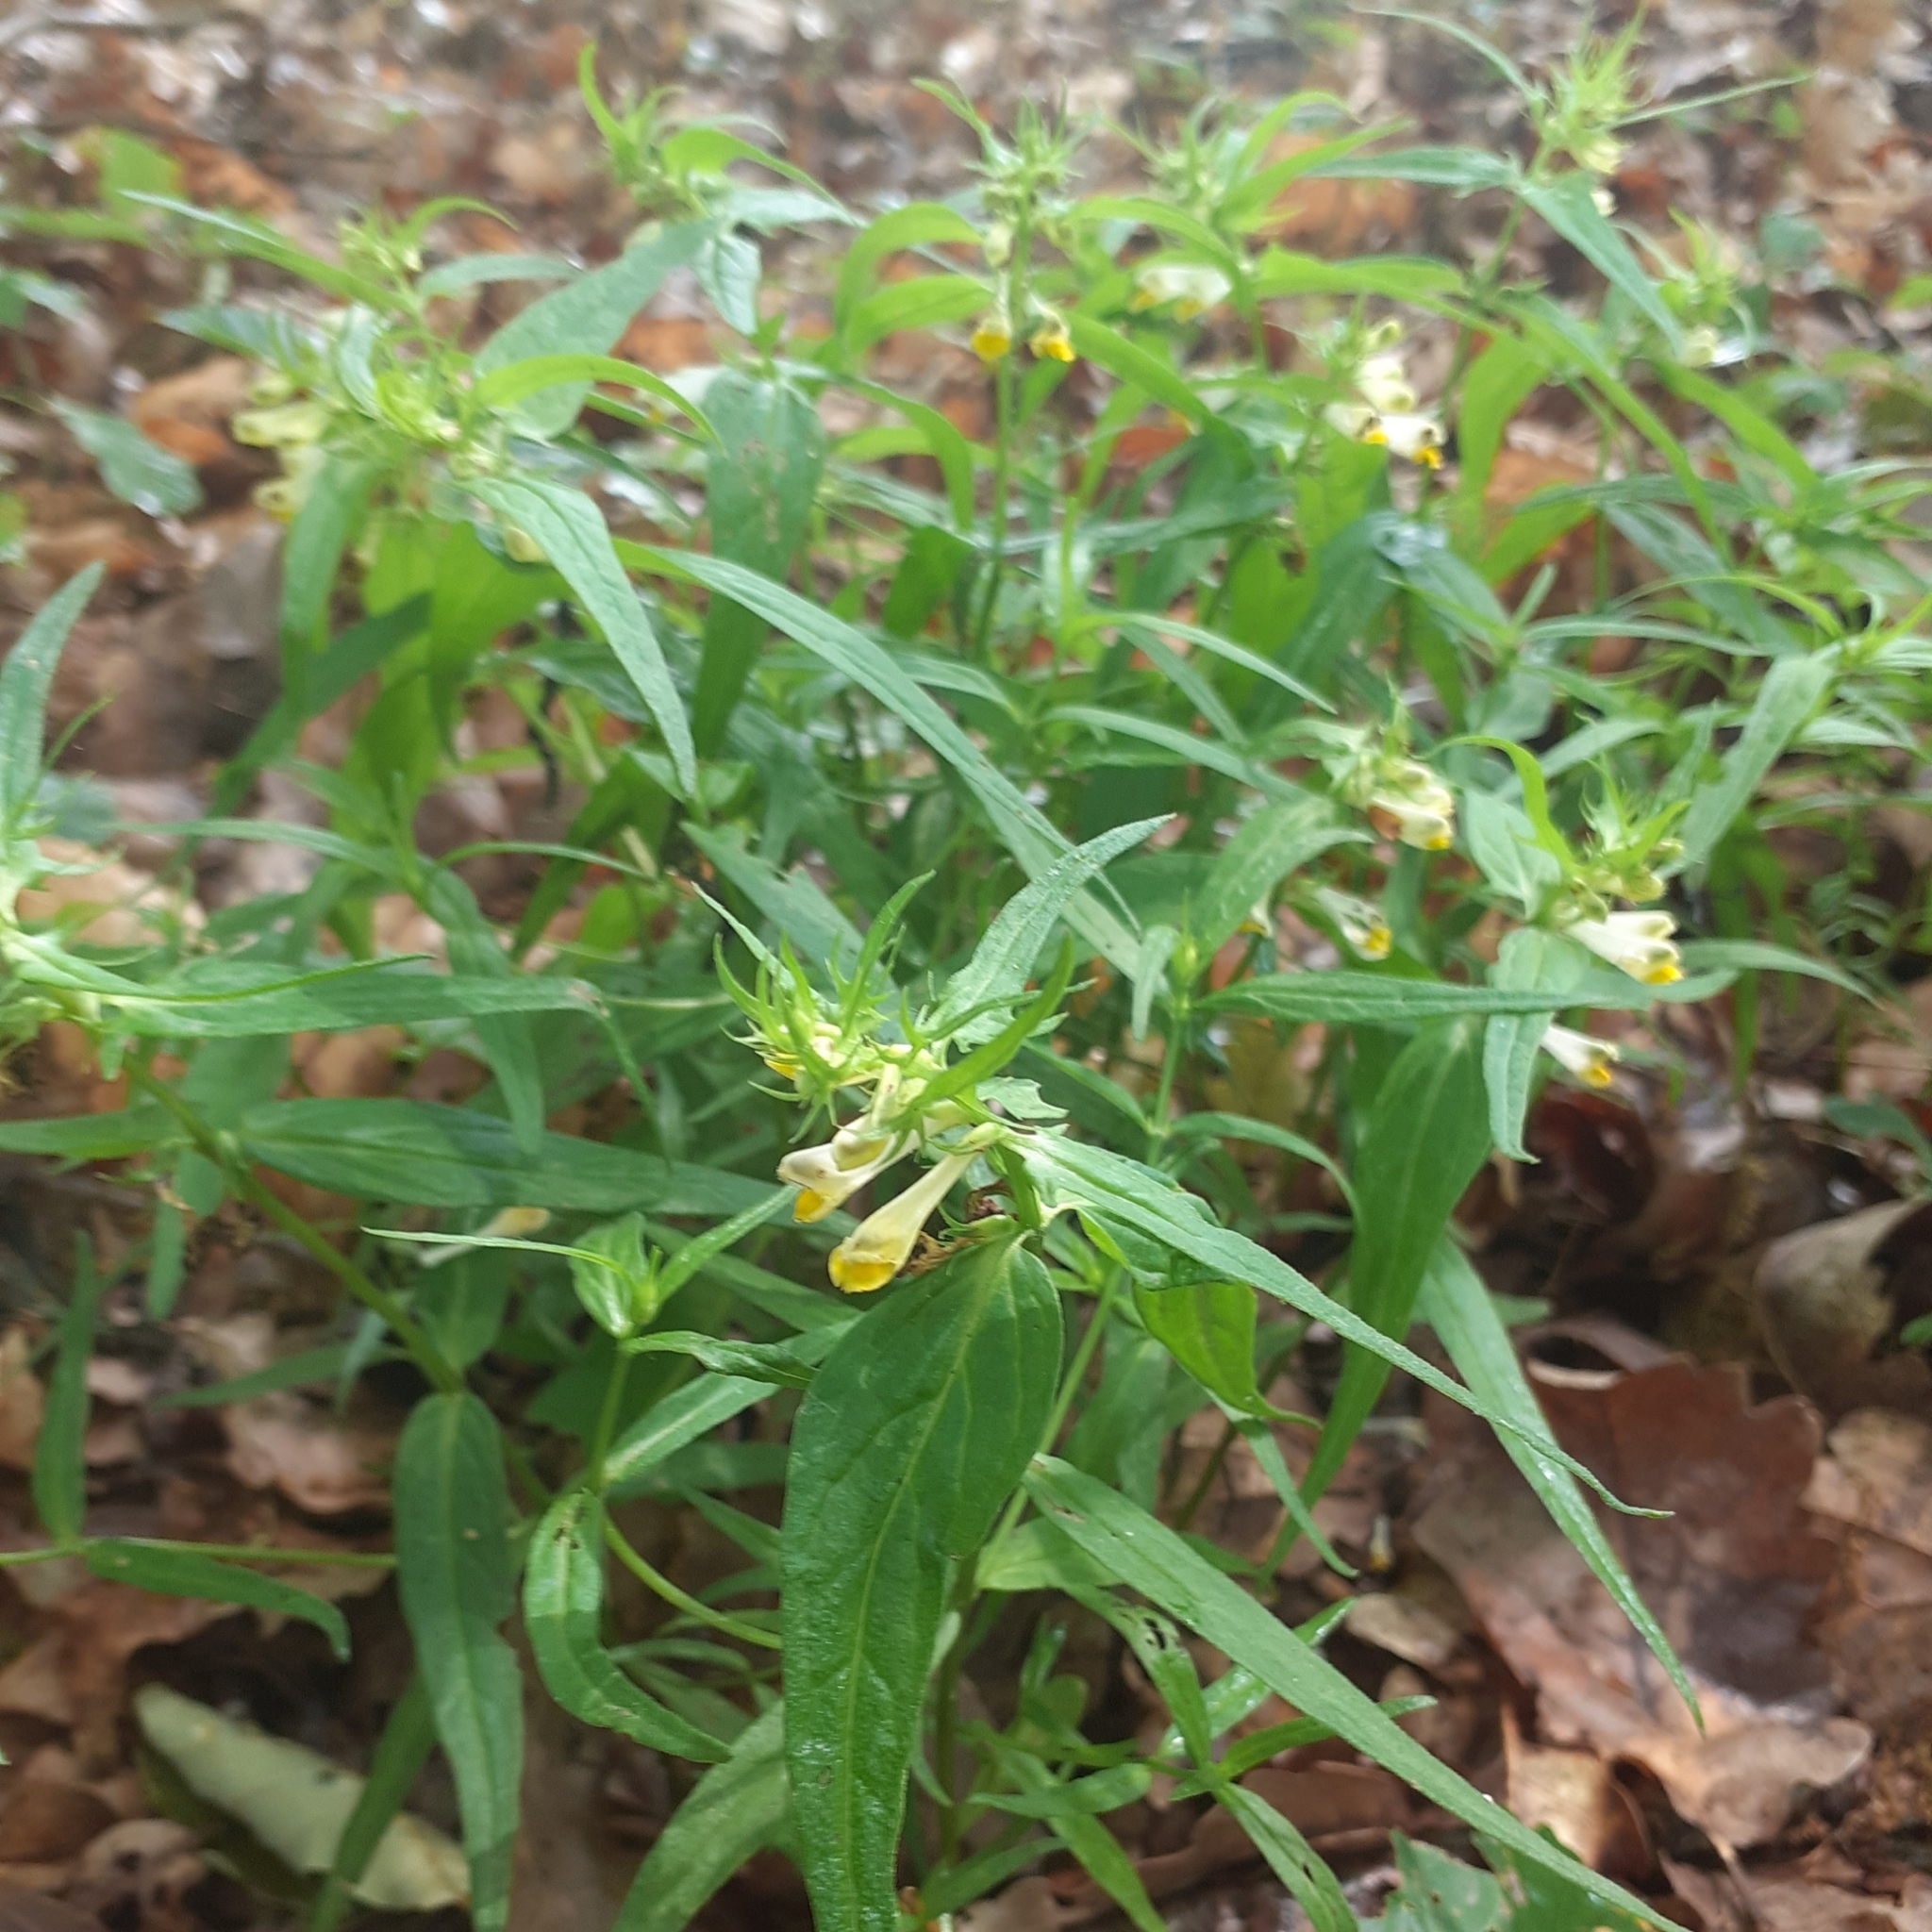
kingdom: Plantae
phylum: Tracheophyta
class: Magnoliopsida
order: Lamiales
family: Orobanchaceae
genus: Melampyrum
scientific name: Melampyrum pratense
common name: Common cow-wheat
